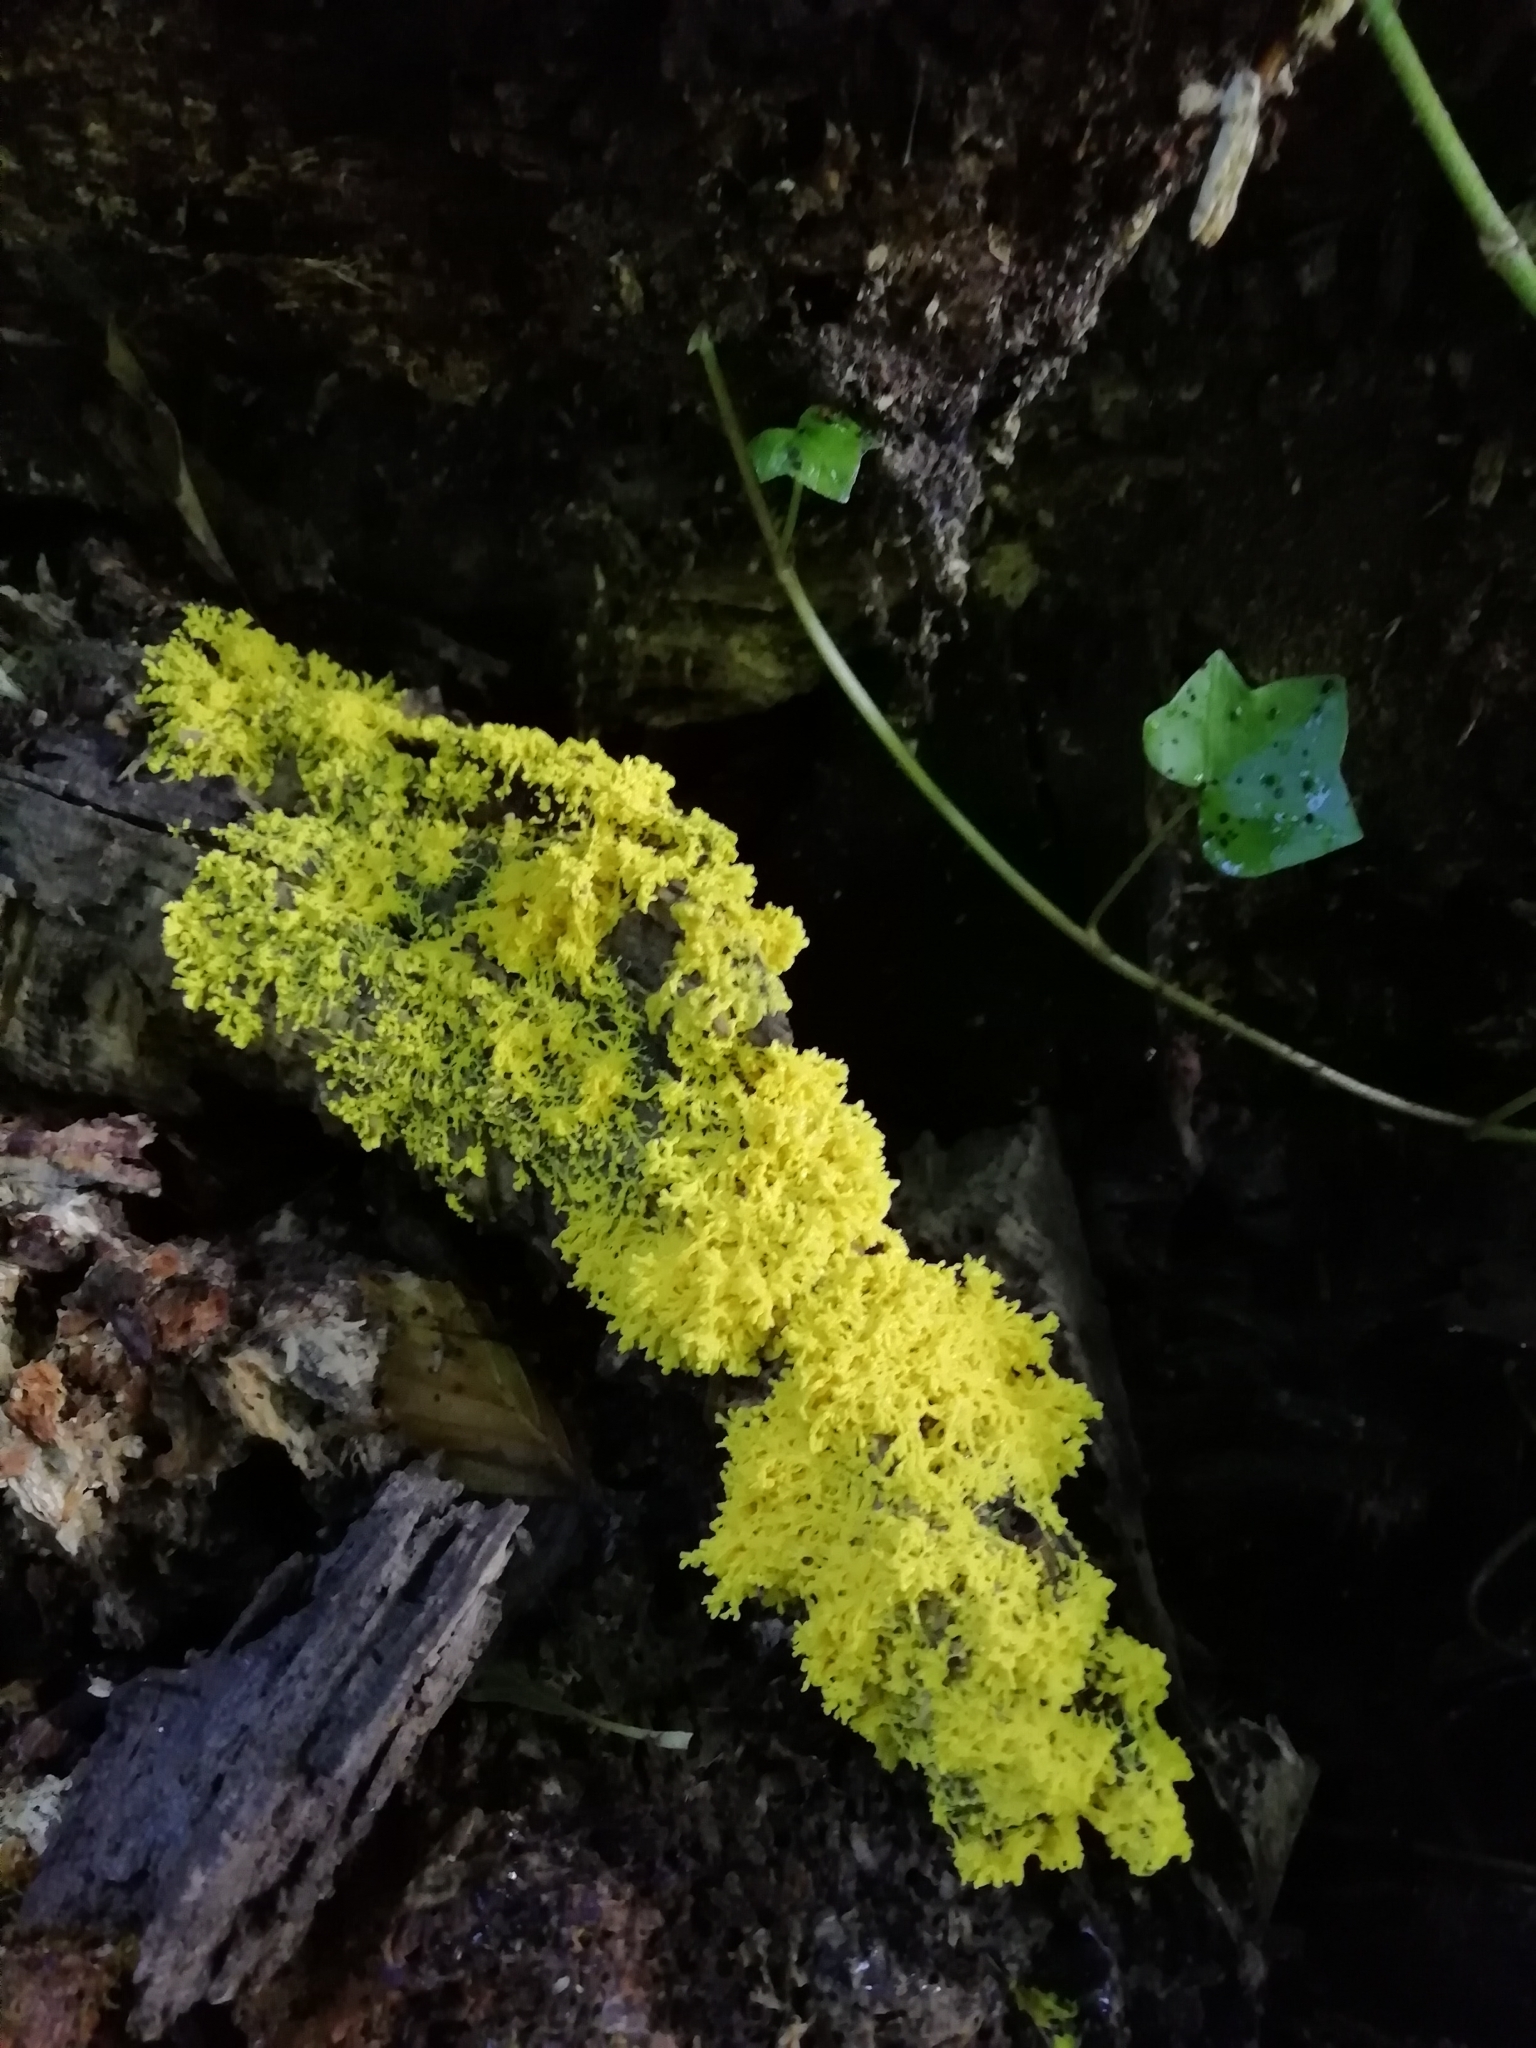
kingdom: Protozoa
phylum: Mycetozoa
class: Myxomycetes
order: Physarales
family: Physaraceae
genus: Fuligo
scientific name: Fuligo septica
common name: Dog vomit slime mold
